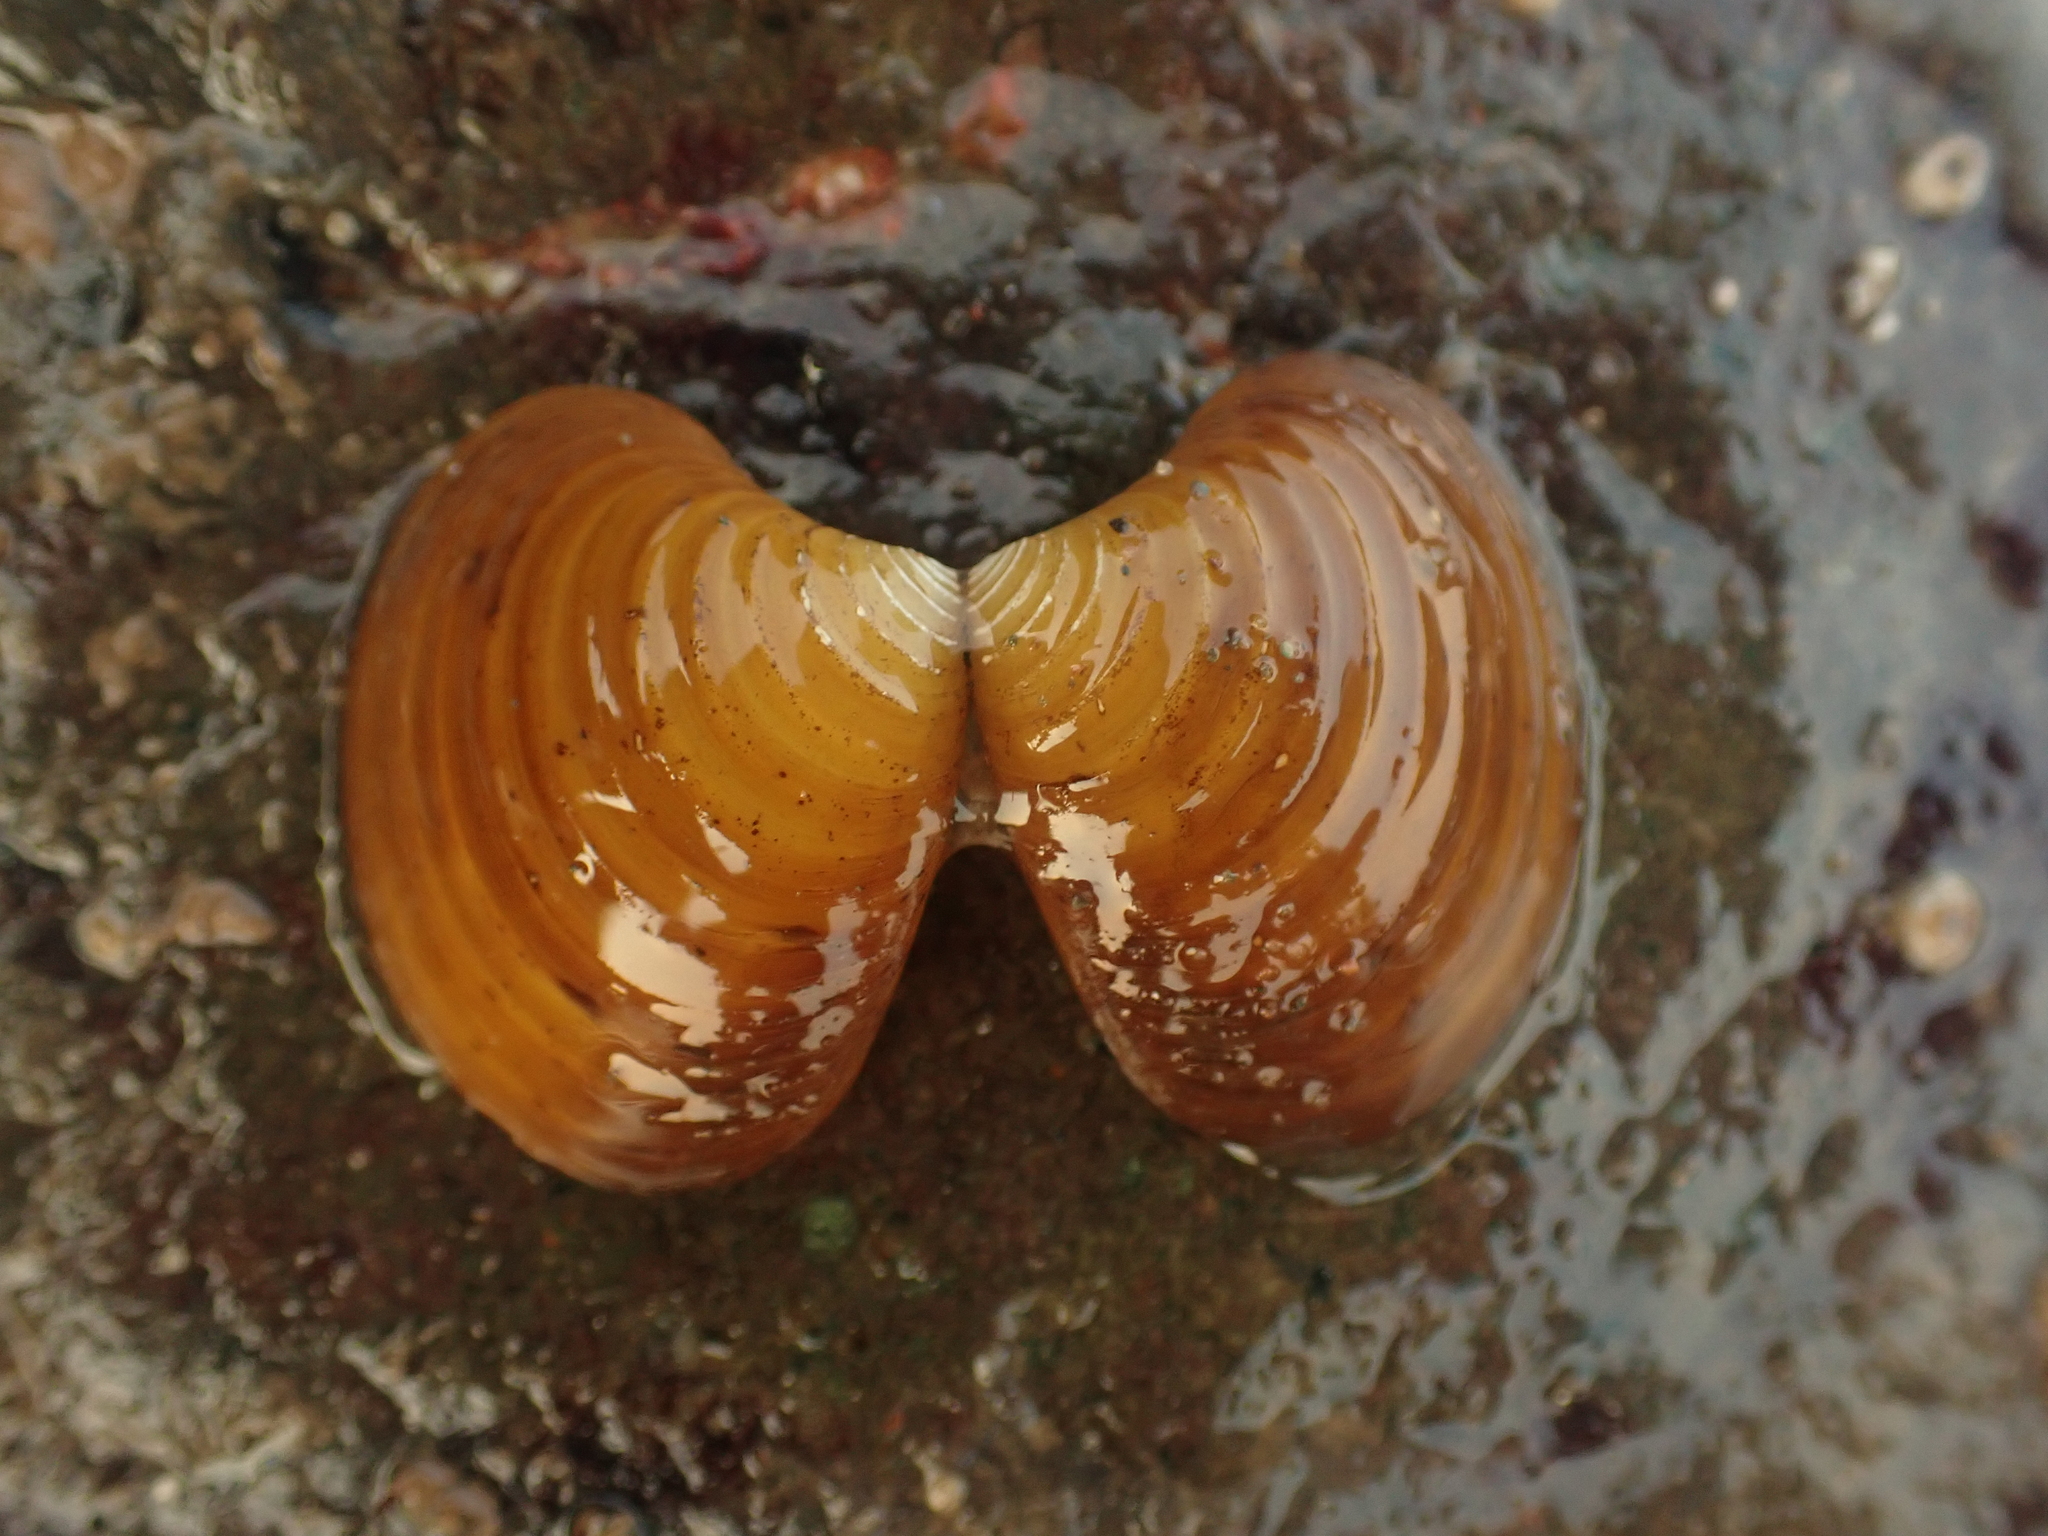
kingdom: Animalia
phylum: Mollusca
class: Bivalvia
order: Carditida
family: Astartidae
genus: Astarte
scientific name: Astarte undata
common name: Wavy astarte
